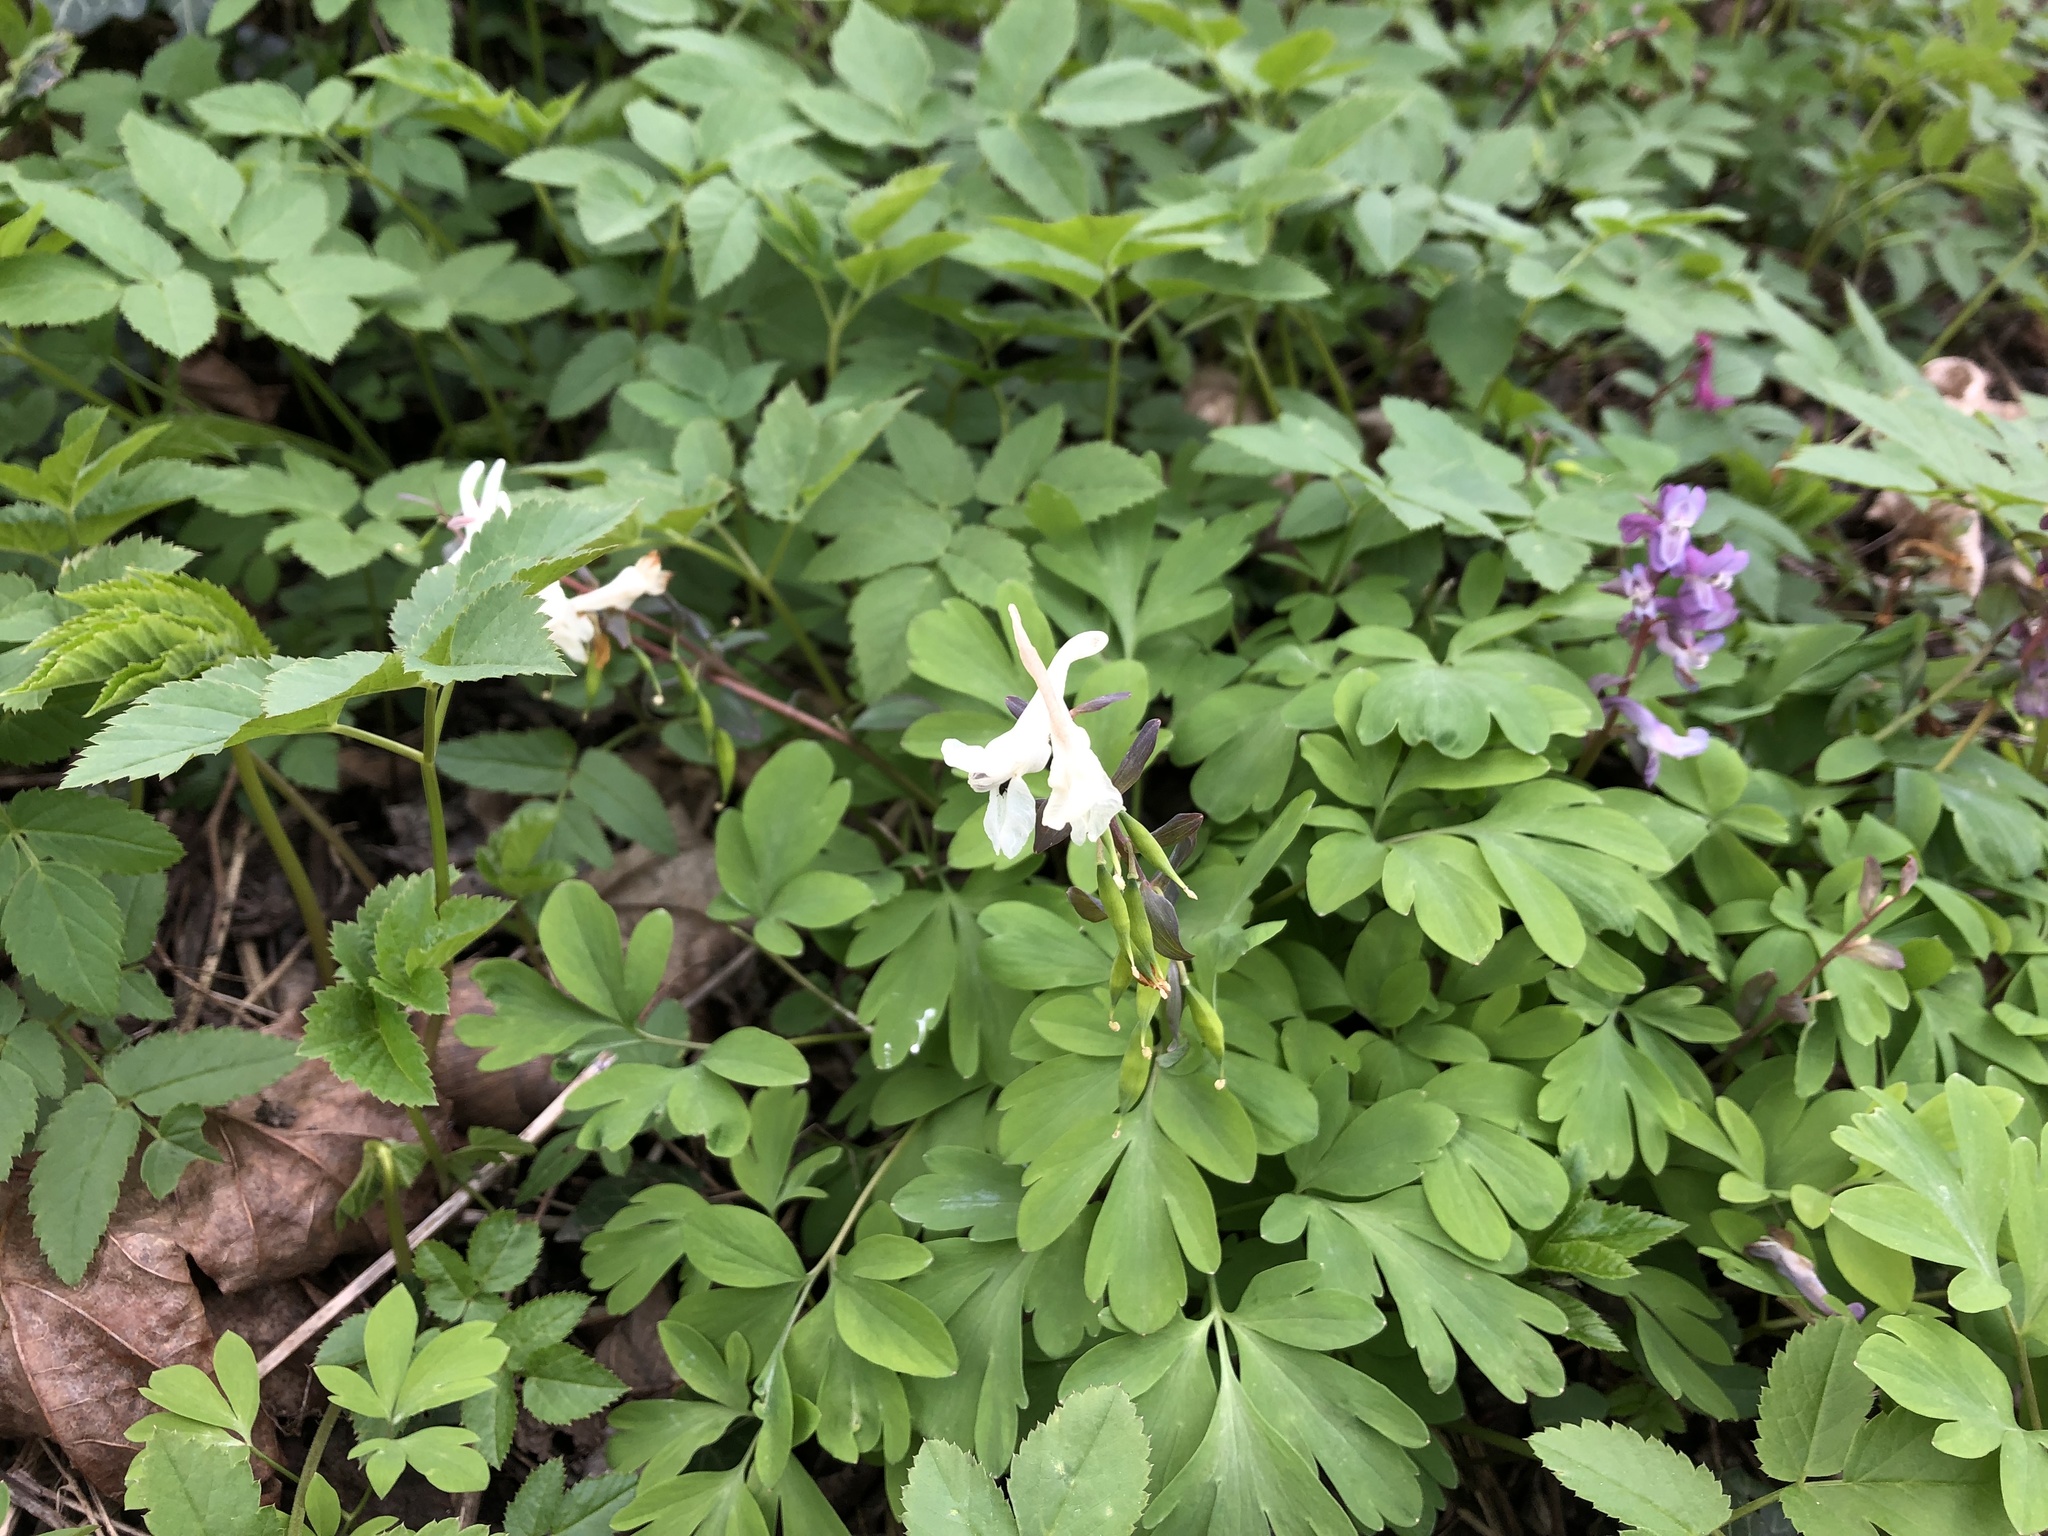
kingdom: Plantae
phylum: Tracheophyta
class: Magnoliopsida
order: Ranunculales
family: Papaveraceae
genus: Corydalis
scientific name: Corydalis cava
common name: Hollowroot
